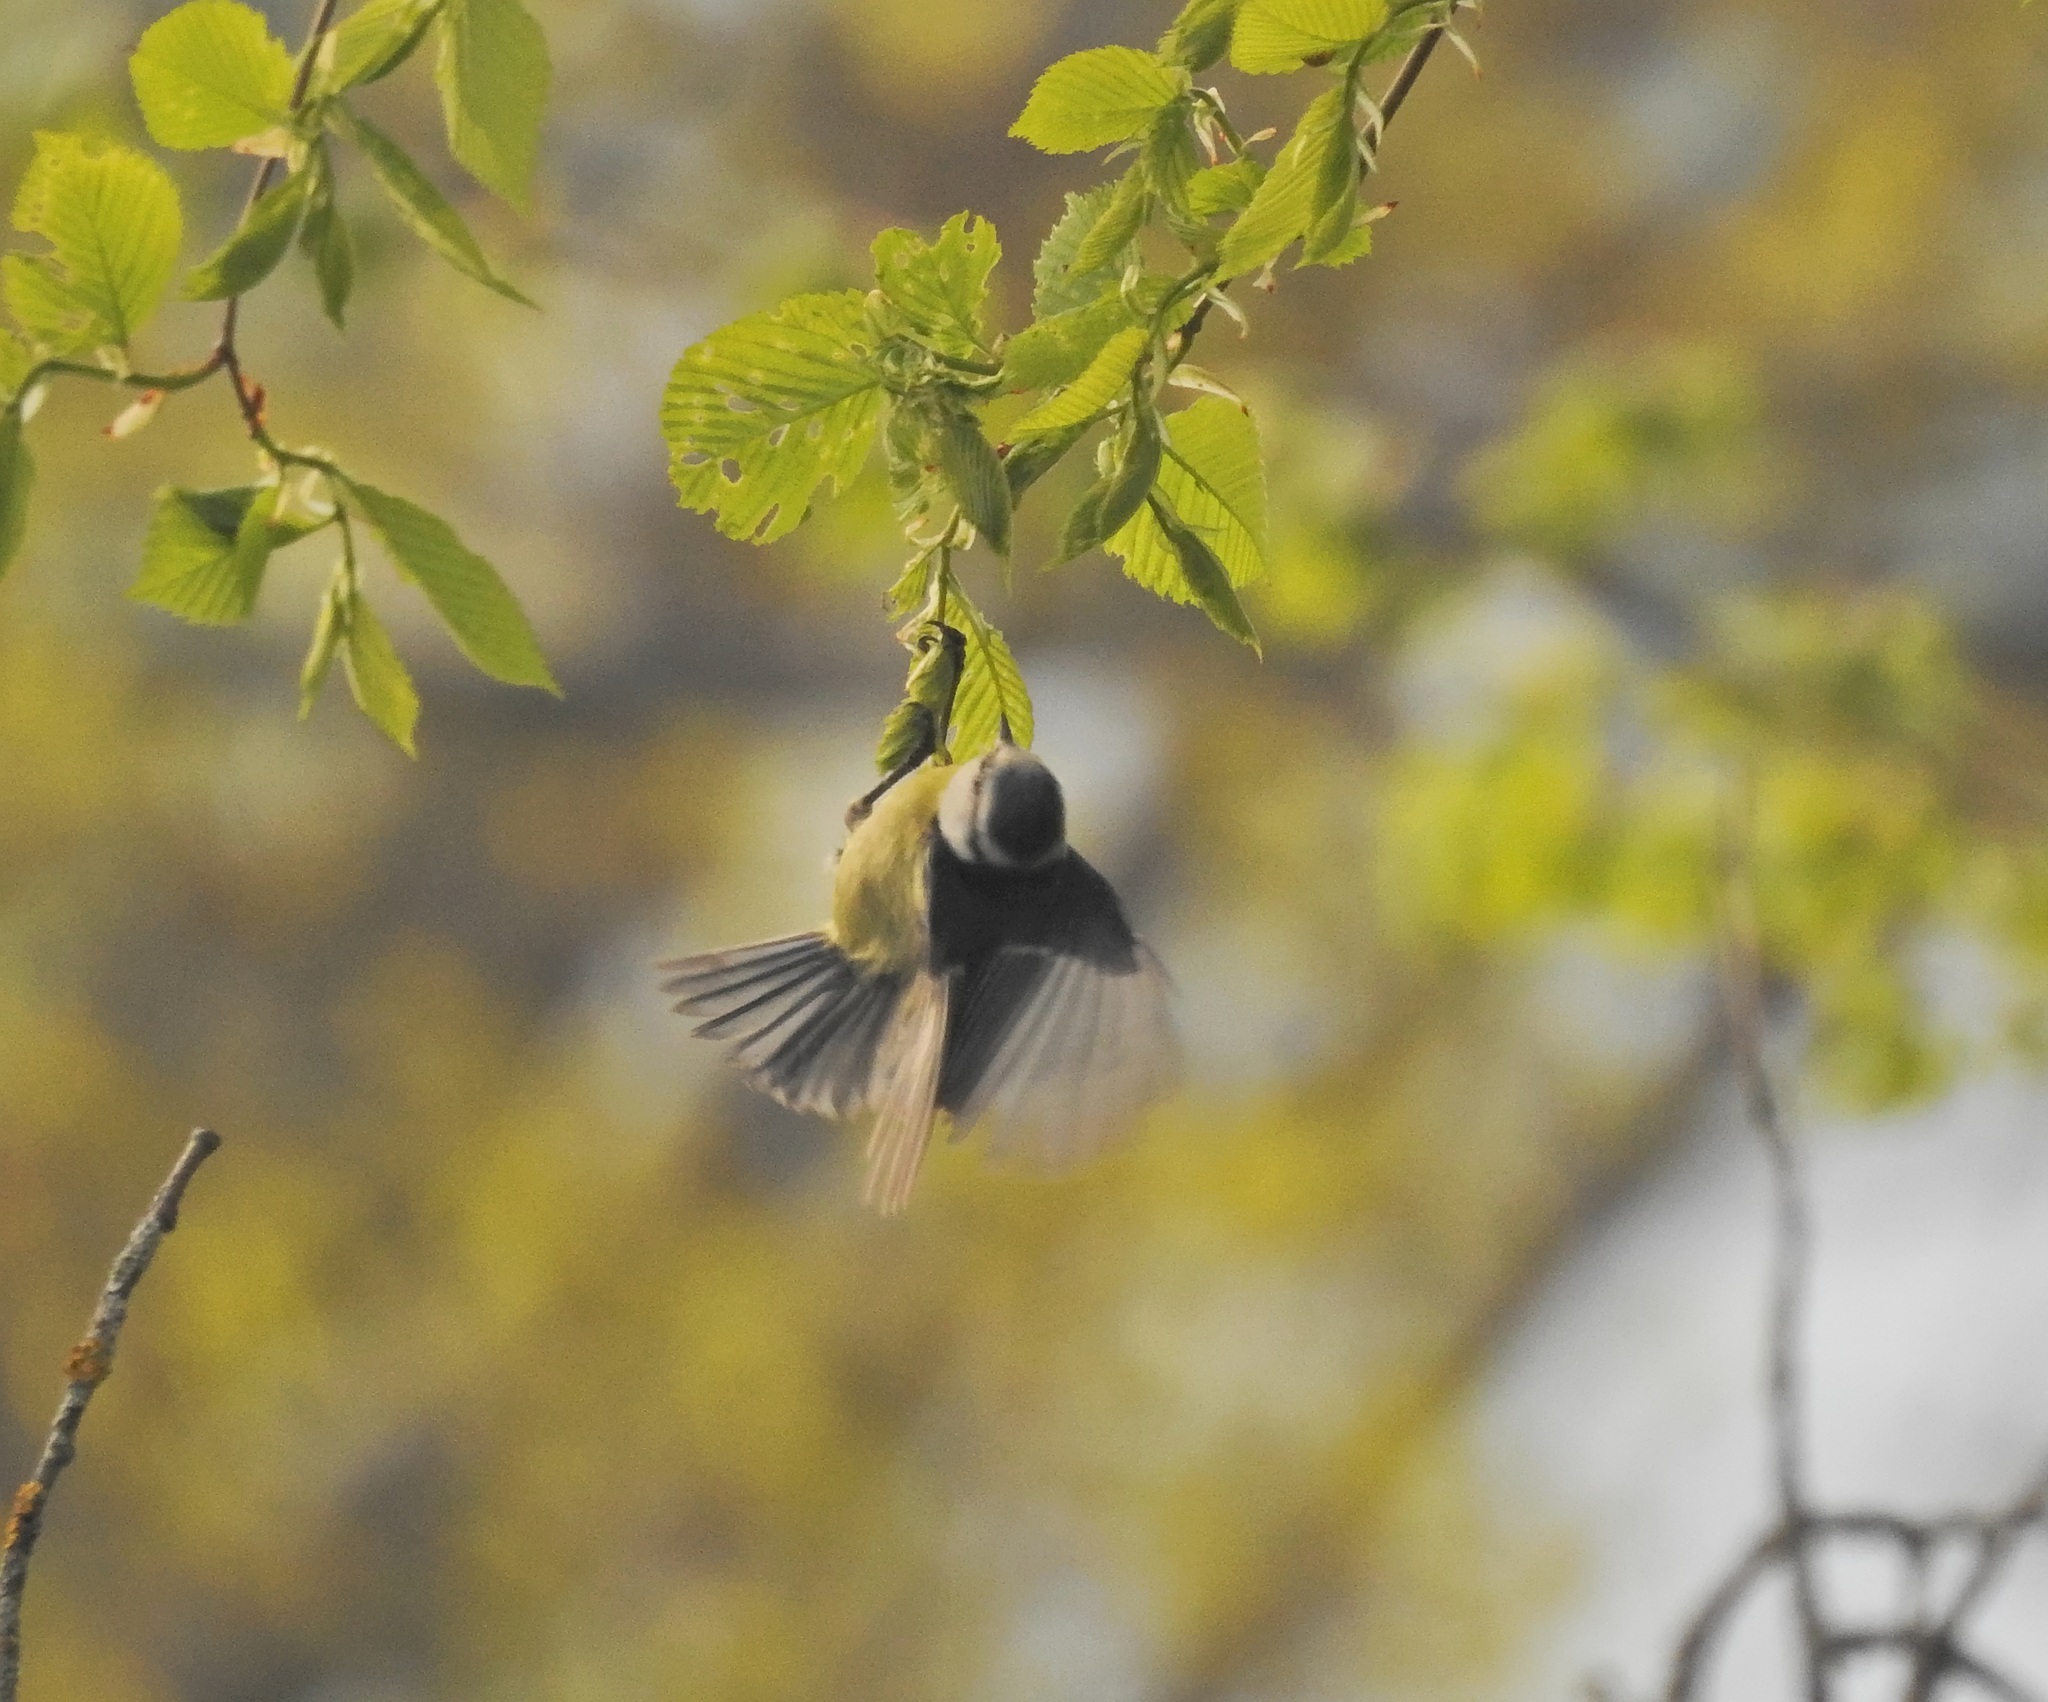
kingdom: Animalia
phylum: Chordata
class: Aves
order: Passeriformes
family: Paridae
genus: Cyanistes
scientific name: Cyanistes caeruleus
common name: Eurasian blue tit
